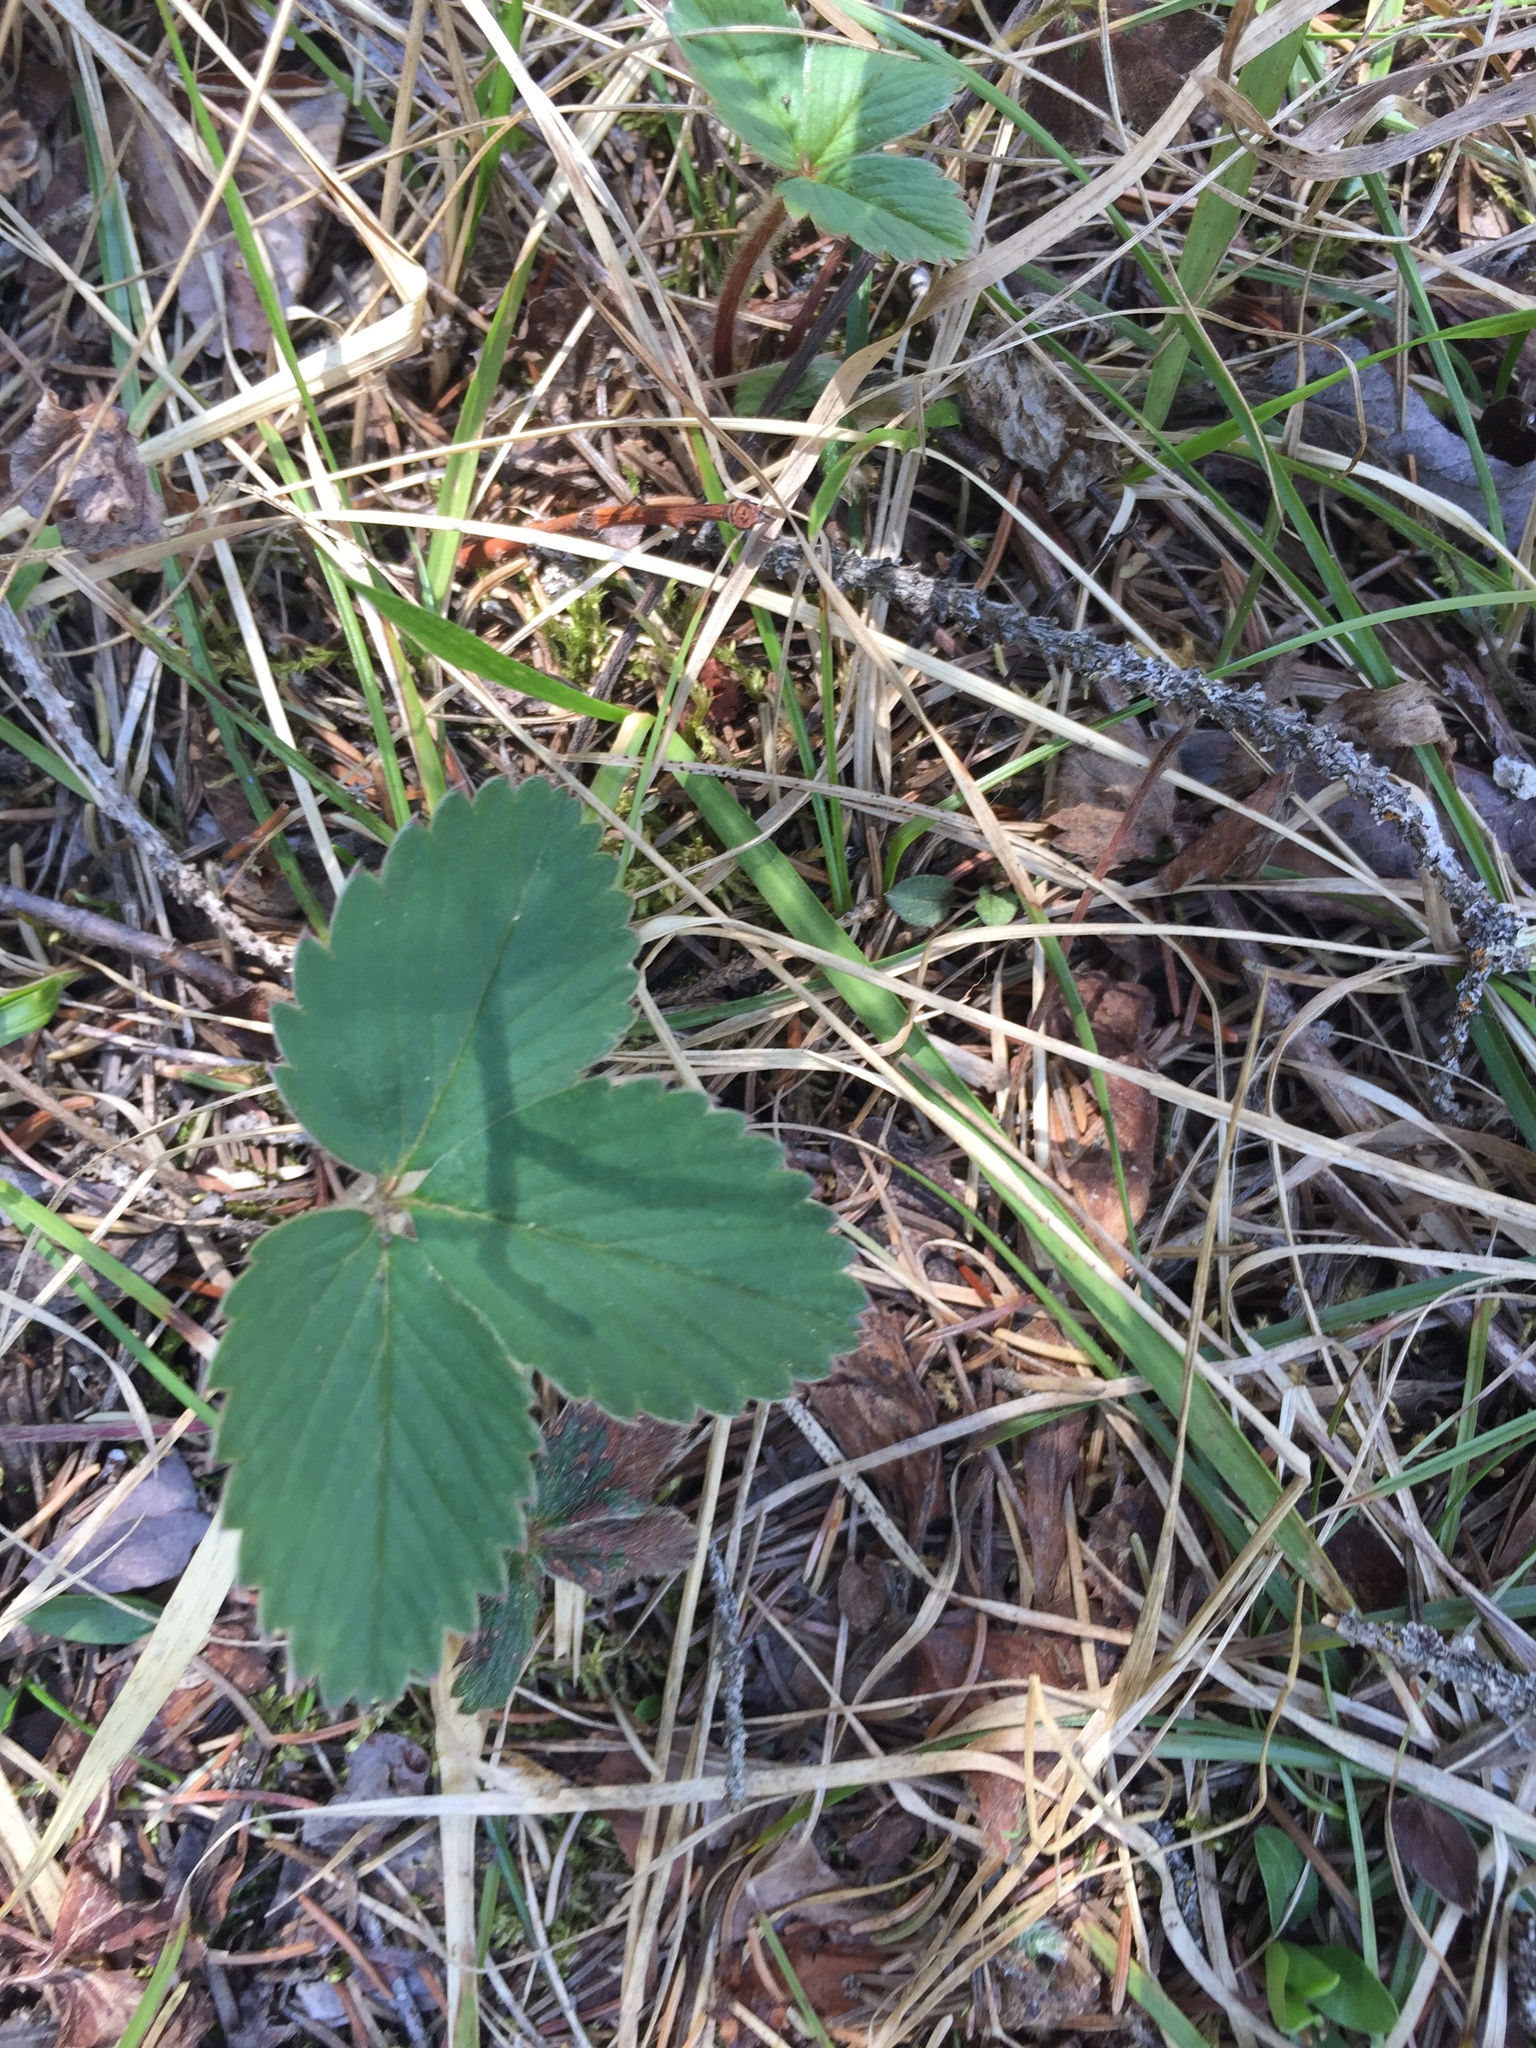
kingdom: Plantae
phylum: Tracheophyta
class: Magnoliopsida
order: Rosales
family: Rosaceae
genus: Fragaria
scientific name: Fragaria virginiana
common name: Thickleaved wild strawberry
